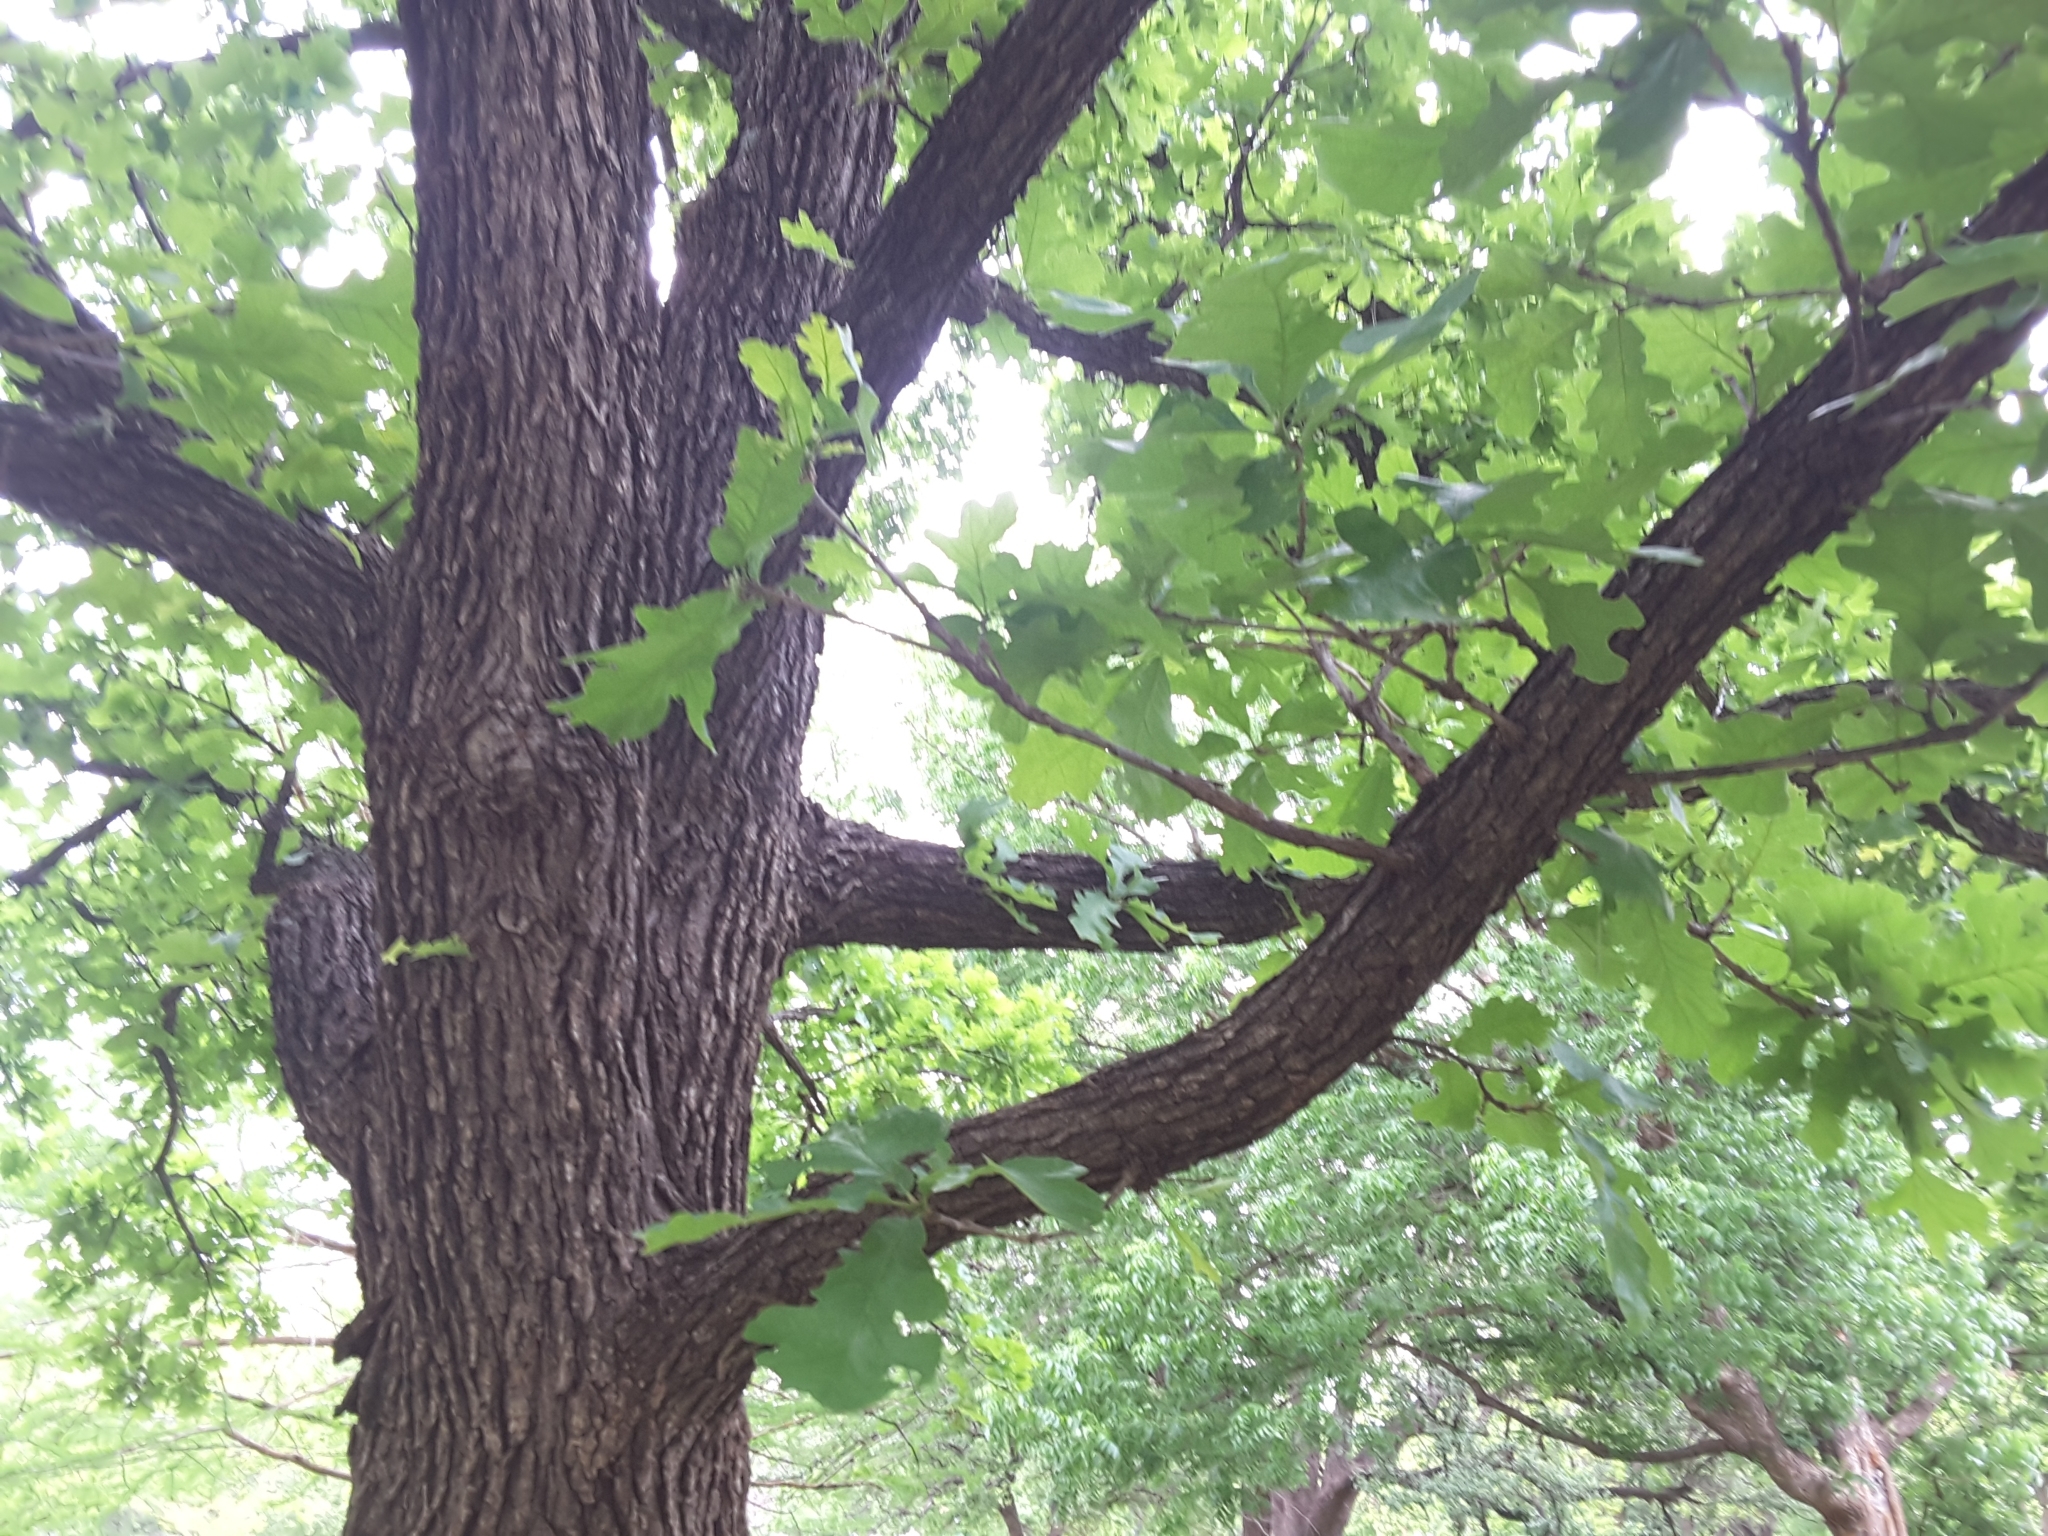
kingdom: Plantae
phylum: Tracheophyta
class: Magnoliopsida
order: Fagales
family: Fagaceae
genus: Quercus
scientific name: Quercus macrocarpa
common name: Bur oak
